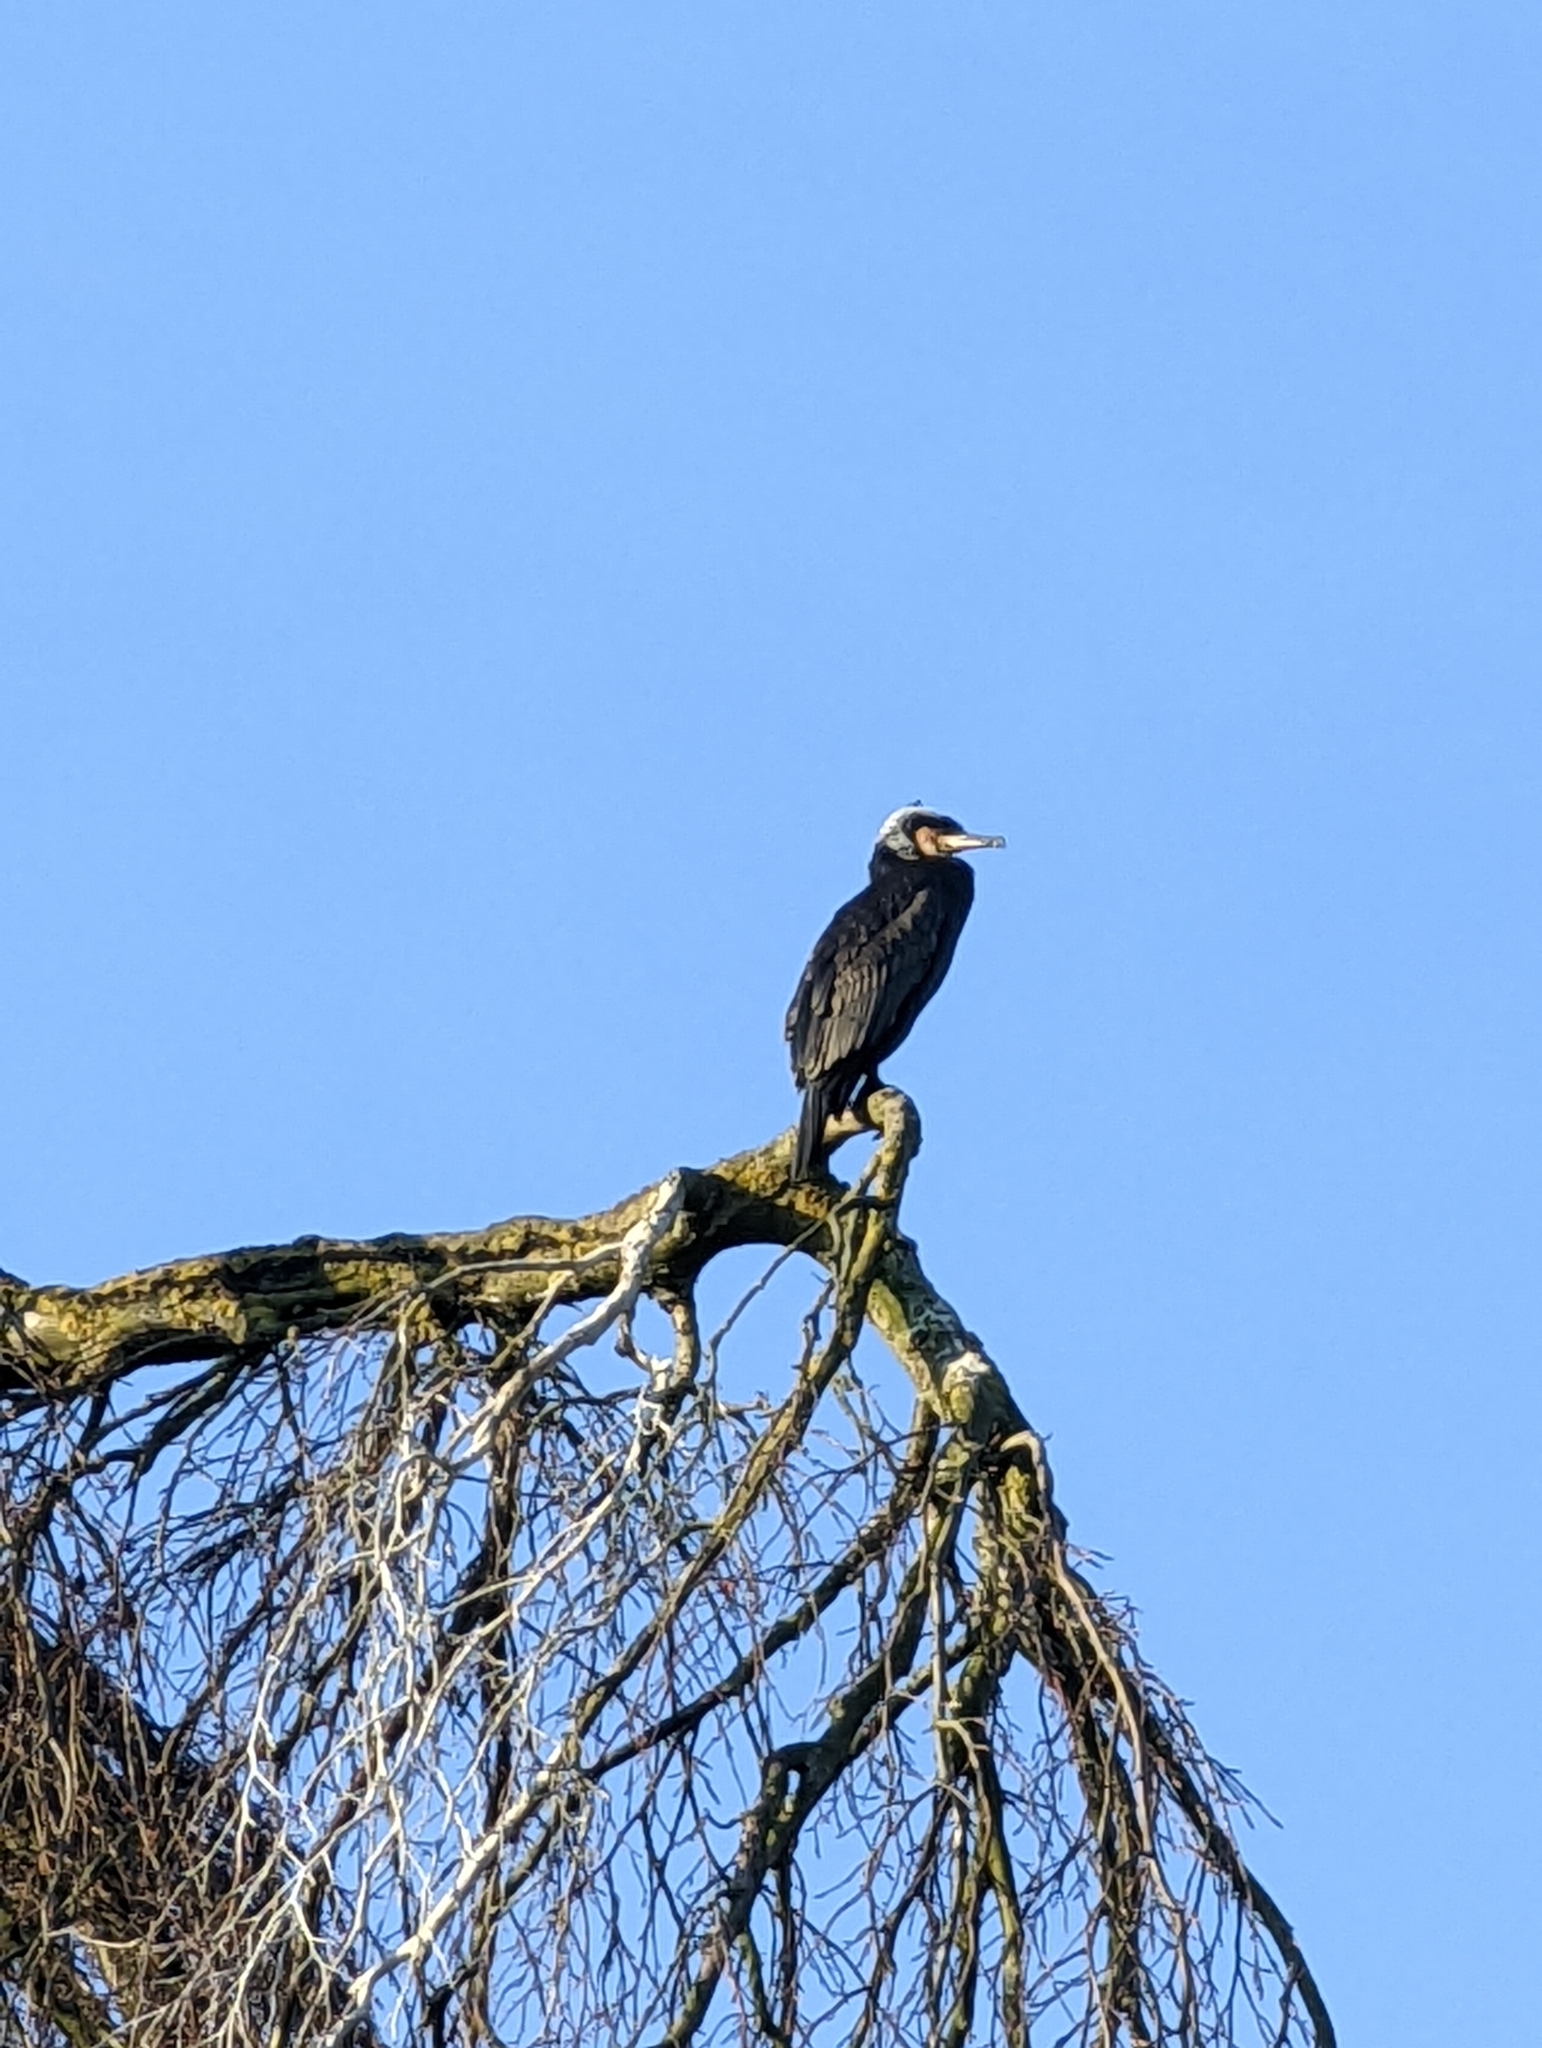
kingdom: Animalia
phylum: Chordata
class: Aves
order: Suliformes
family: Phalacrocoracidae
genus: Phalacrocorax
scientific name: Phalacrocorax carbo
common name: Great cormorant
